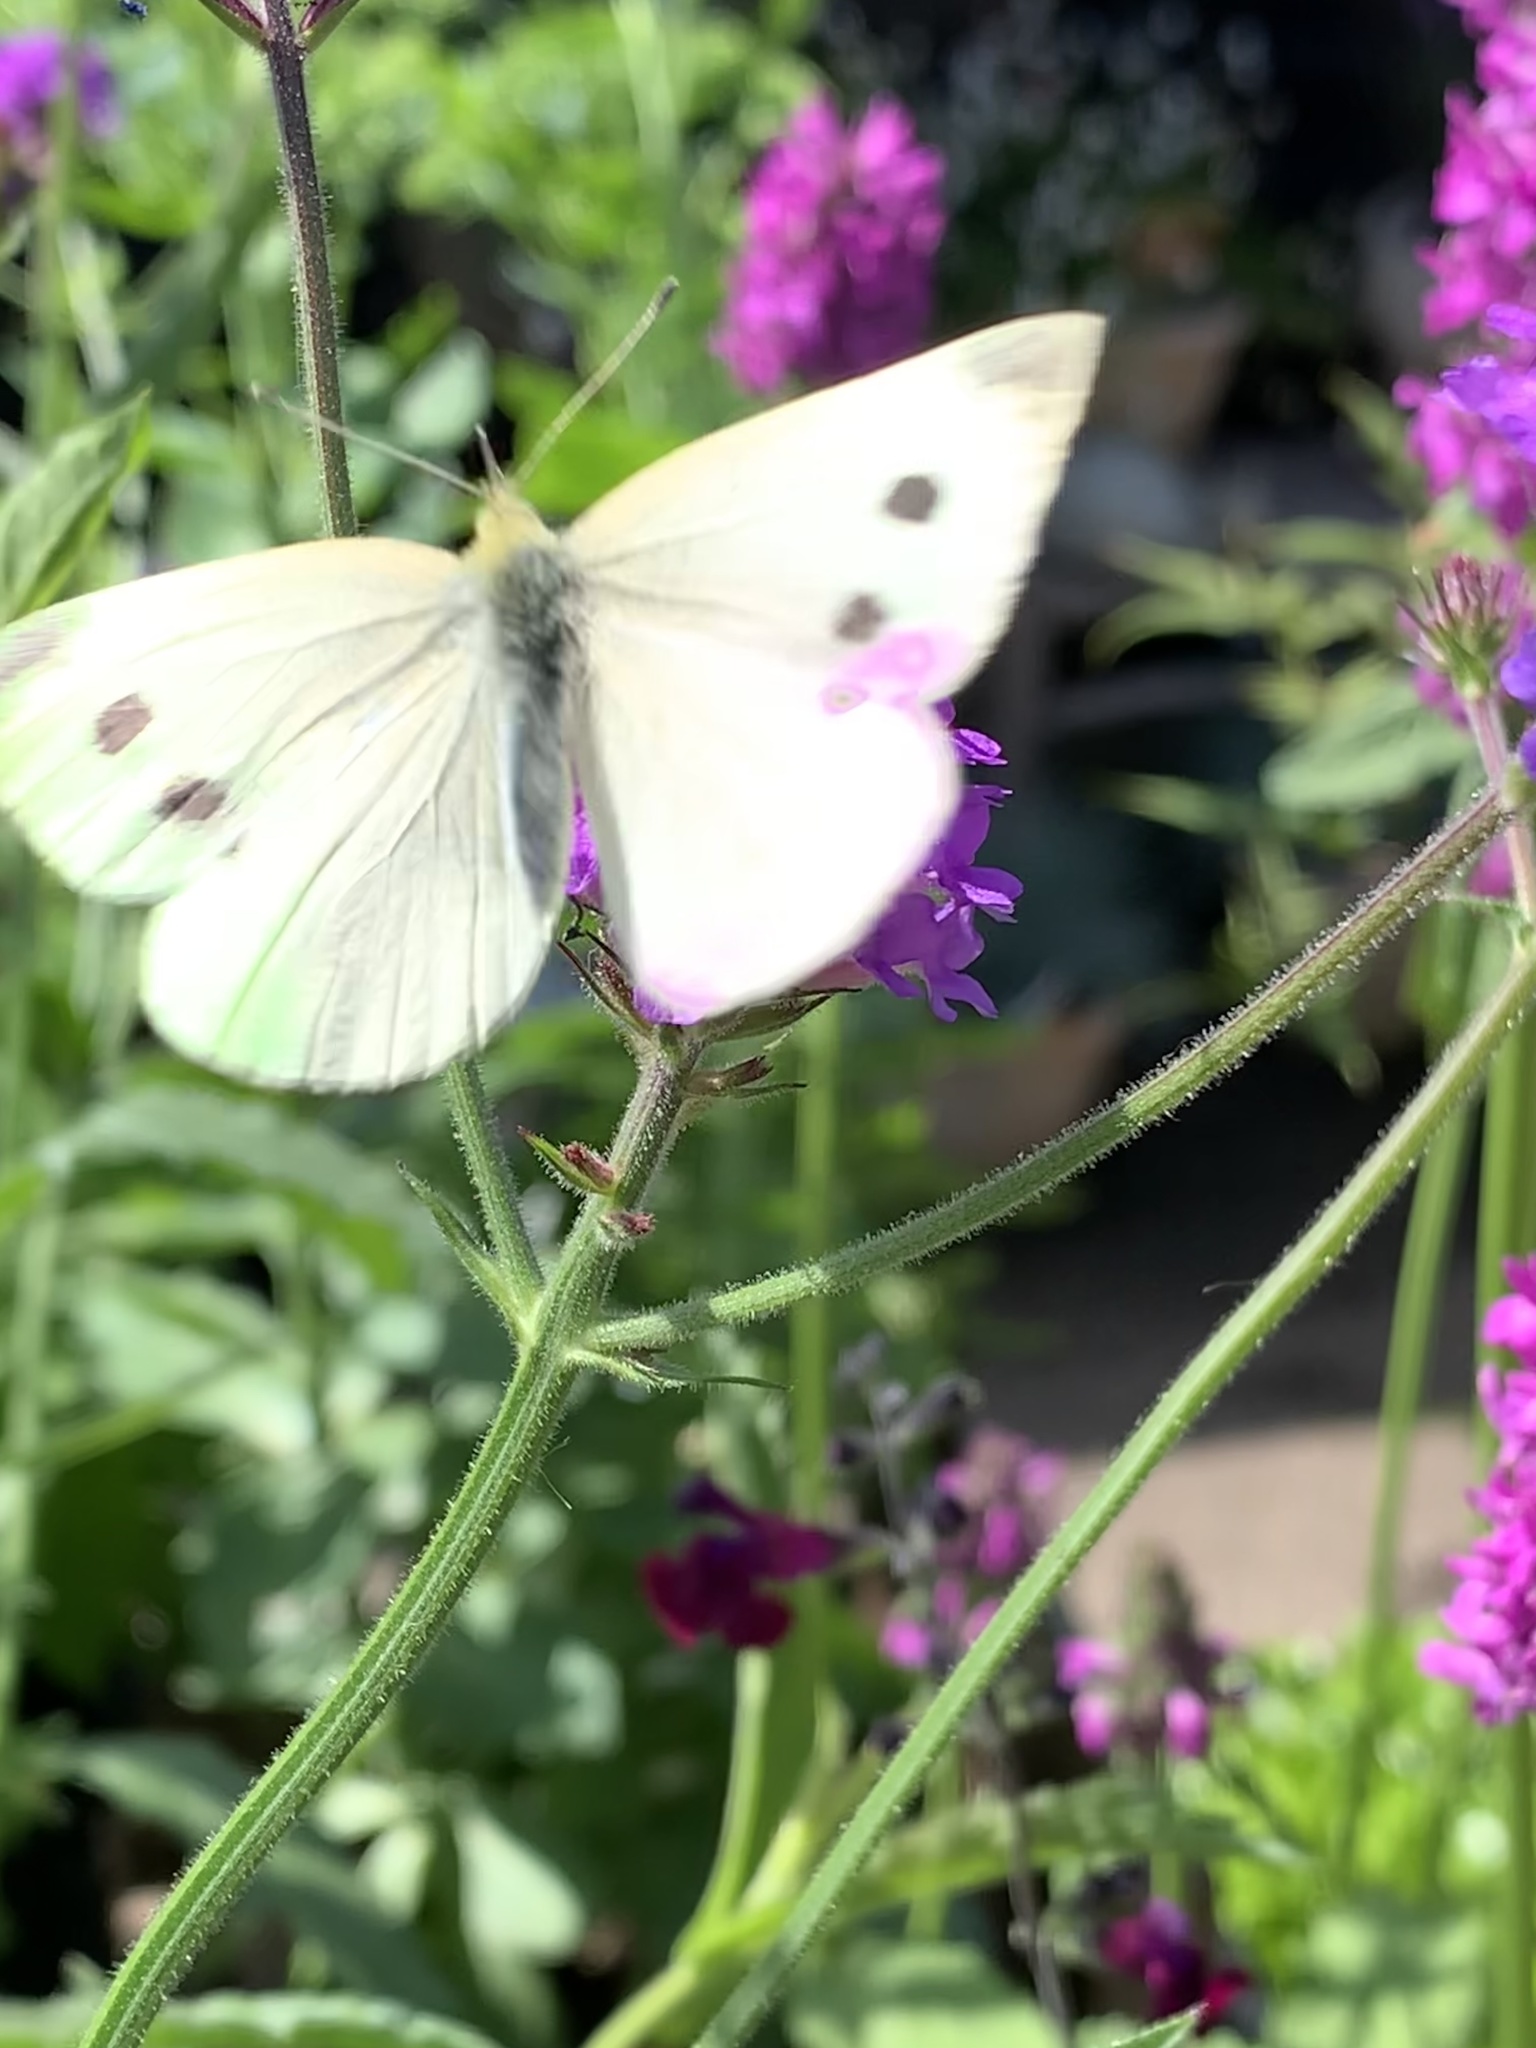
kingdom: Animalia
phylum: Arthropoda
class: Insecta
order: Lepidoptera
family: Pieridae
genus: Pieris
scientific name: Pieris rapae
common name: Small white
